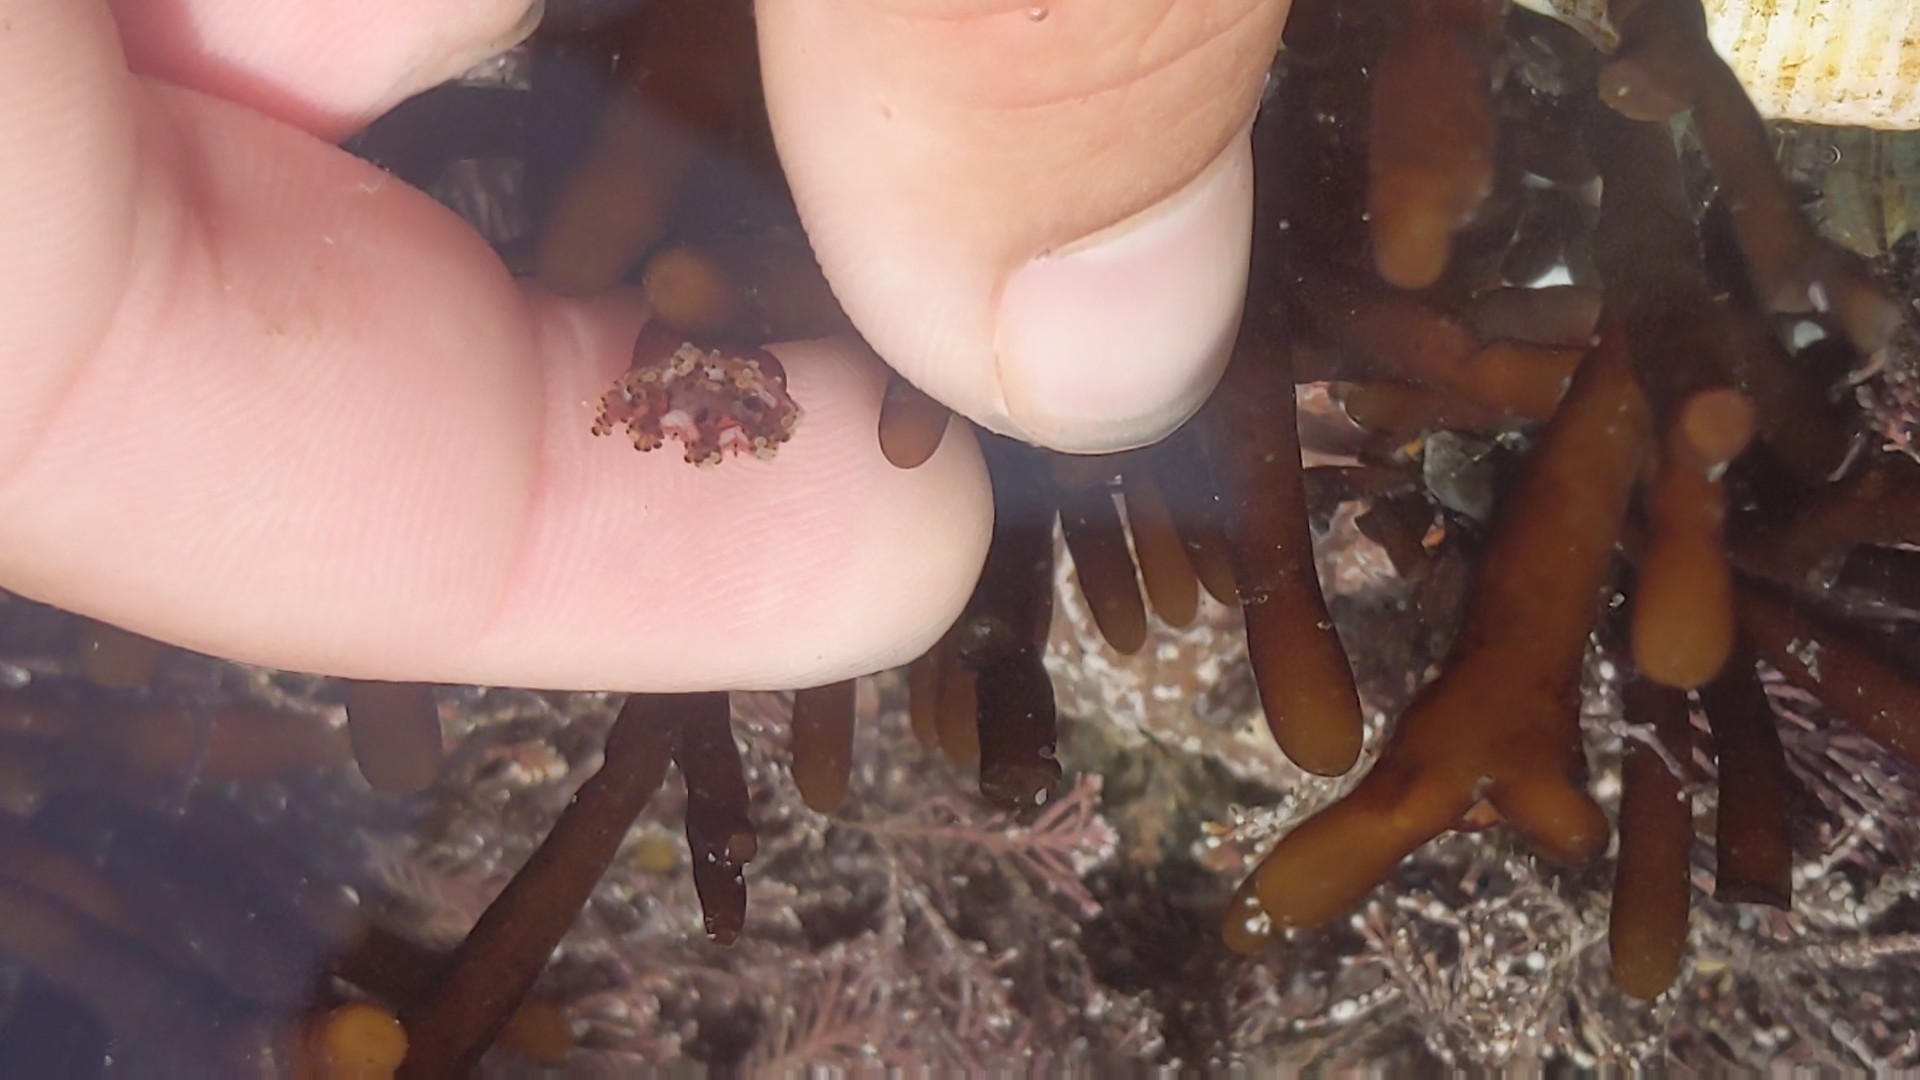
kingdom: Animalia
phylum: Cnidaria
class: Staurozoa
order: Stauromedusae
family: Haliclystidae
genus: Manania
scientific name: Manania gwilliami
